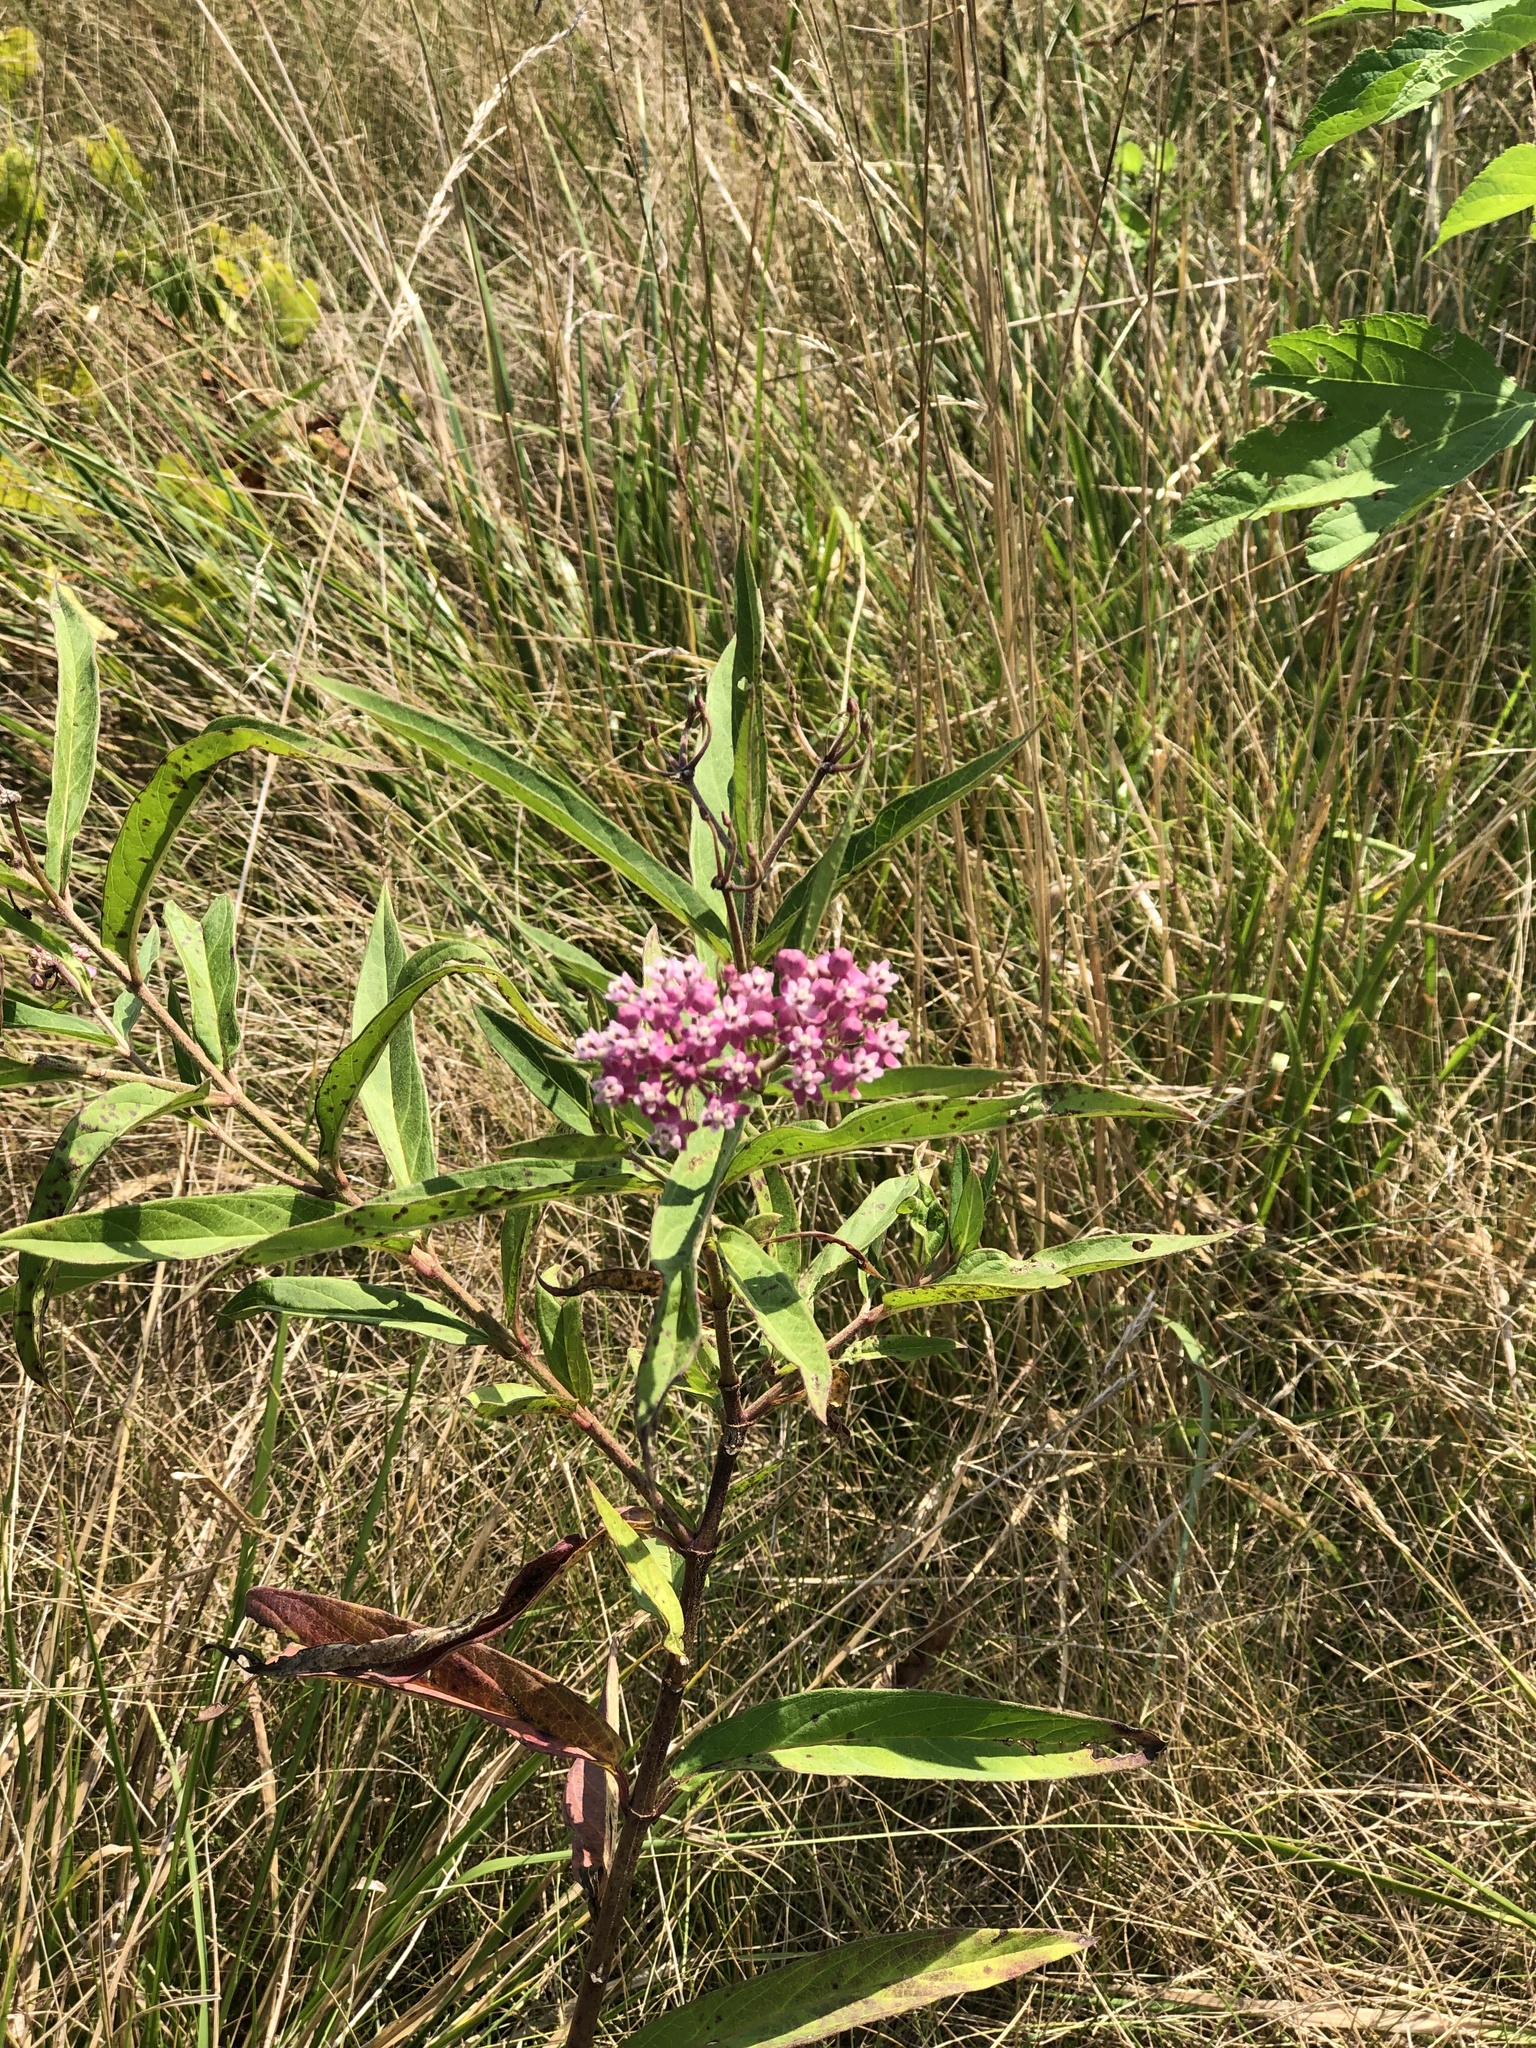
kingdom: Plantae
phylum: Tracheophyta
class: Magnoliopsida
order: Gentianales
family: Apocynaceae
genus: Asclepias
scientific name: Asclepias incarnata
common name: Swamp milkweed
